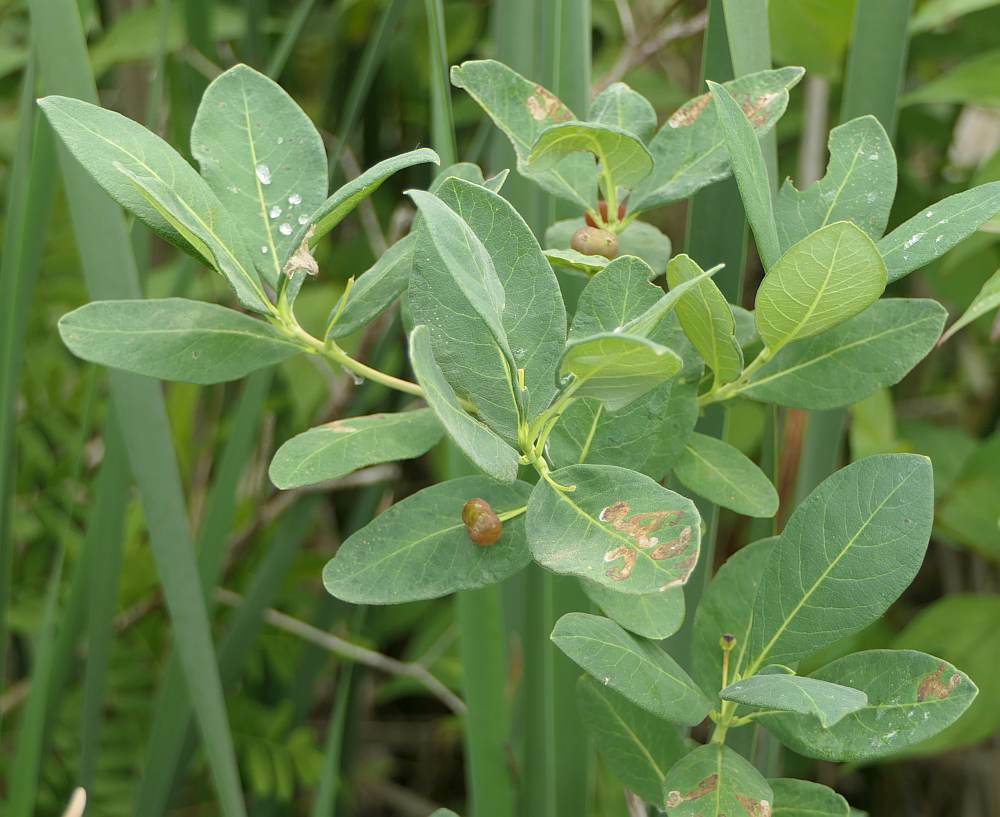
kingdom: Plantae
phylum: Tracheophyta
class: Magnoliopsida
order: Dipsacales
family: Caprifoliaceae
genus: Lonicera
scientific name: Lonicera oblongifolia
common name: Swamp fly honeysuckle
